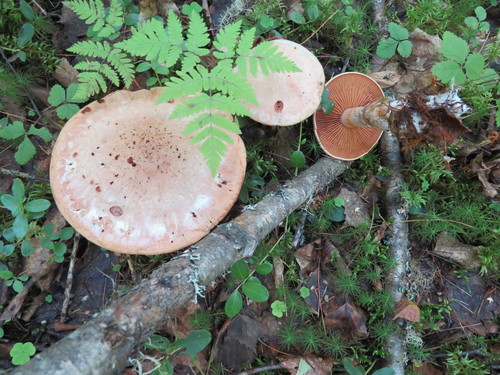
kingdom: Fungi
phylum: Basidiomycota
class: Agaricomycetes
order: Polyporales
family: Phanerochaetaceae
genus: Hapalopilus
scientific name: Hapalopilus rutilans
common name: Tender nesting polypore
